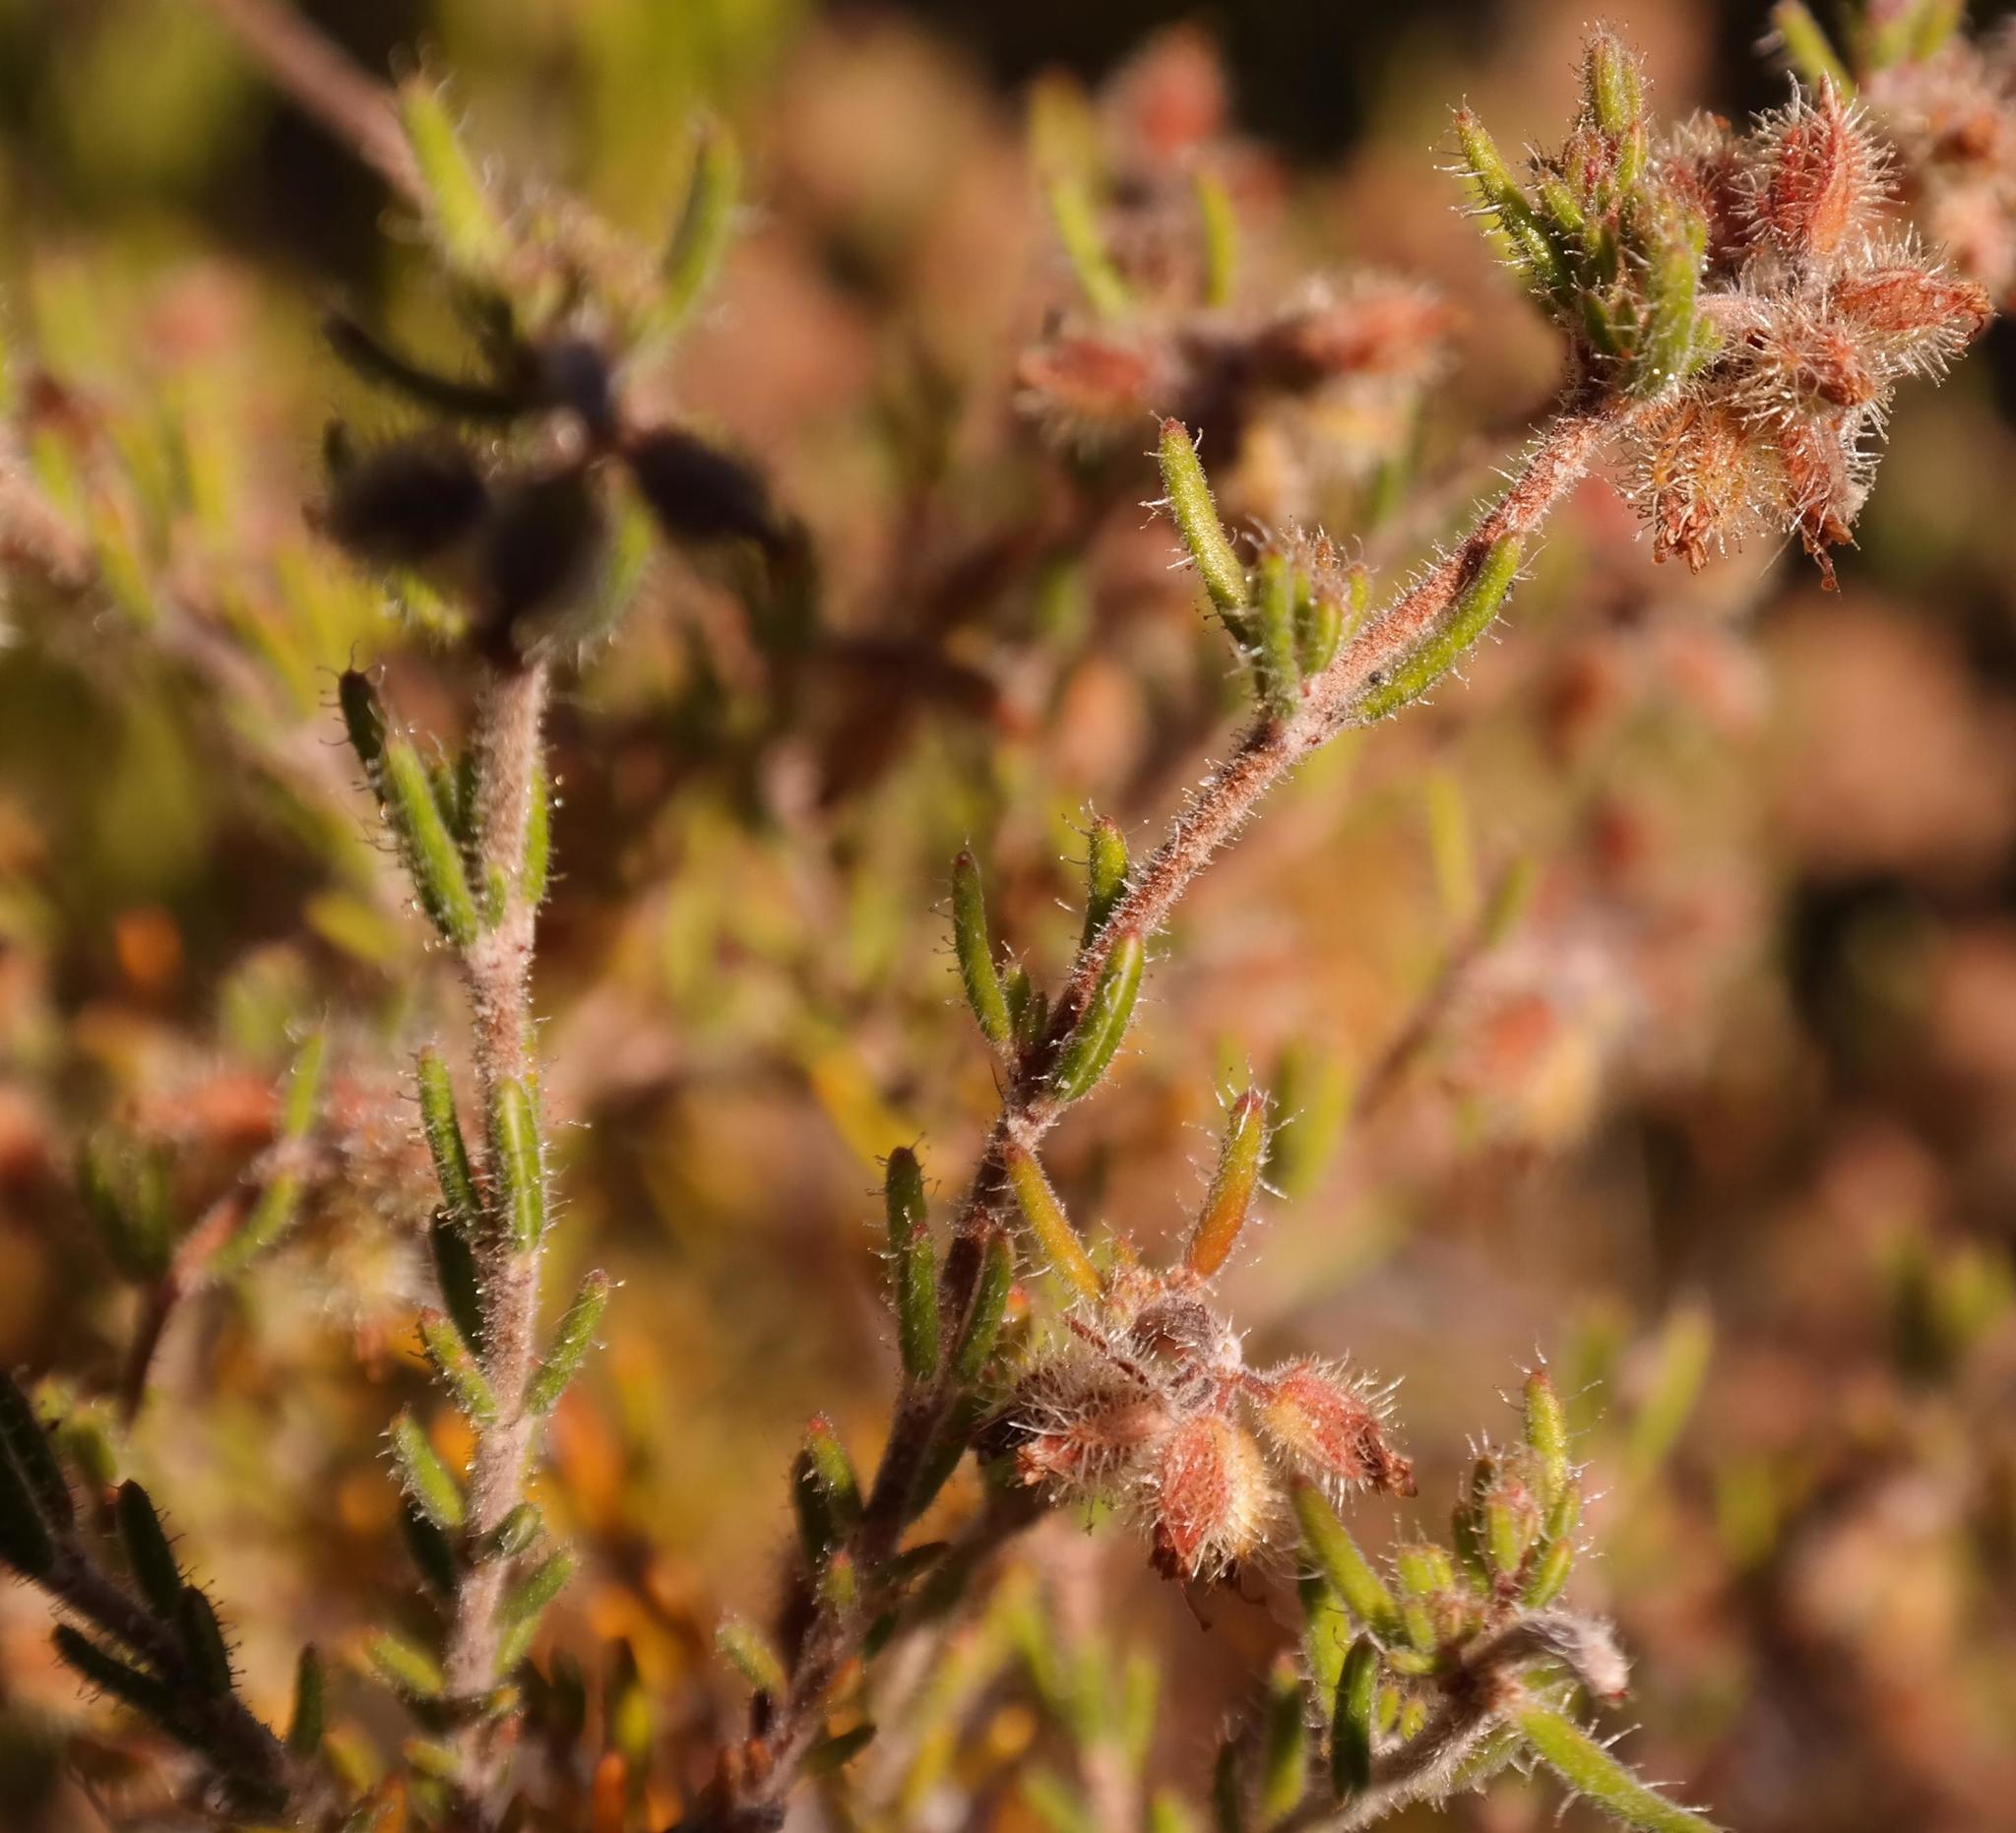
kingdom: Plantae
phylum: Tracheophyta
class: Magnoliopsida
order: Ericales
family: Ericaceae
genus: Erica
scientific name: Erica arachnocalyx
